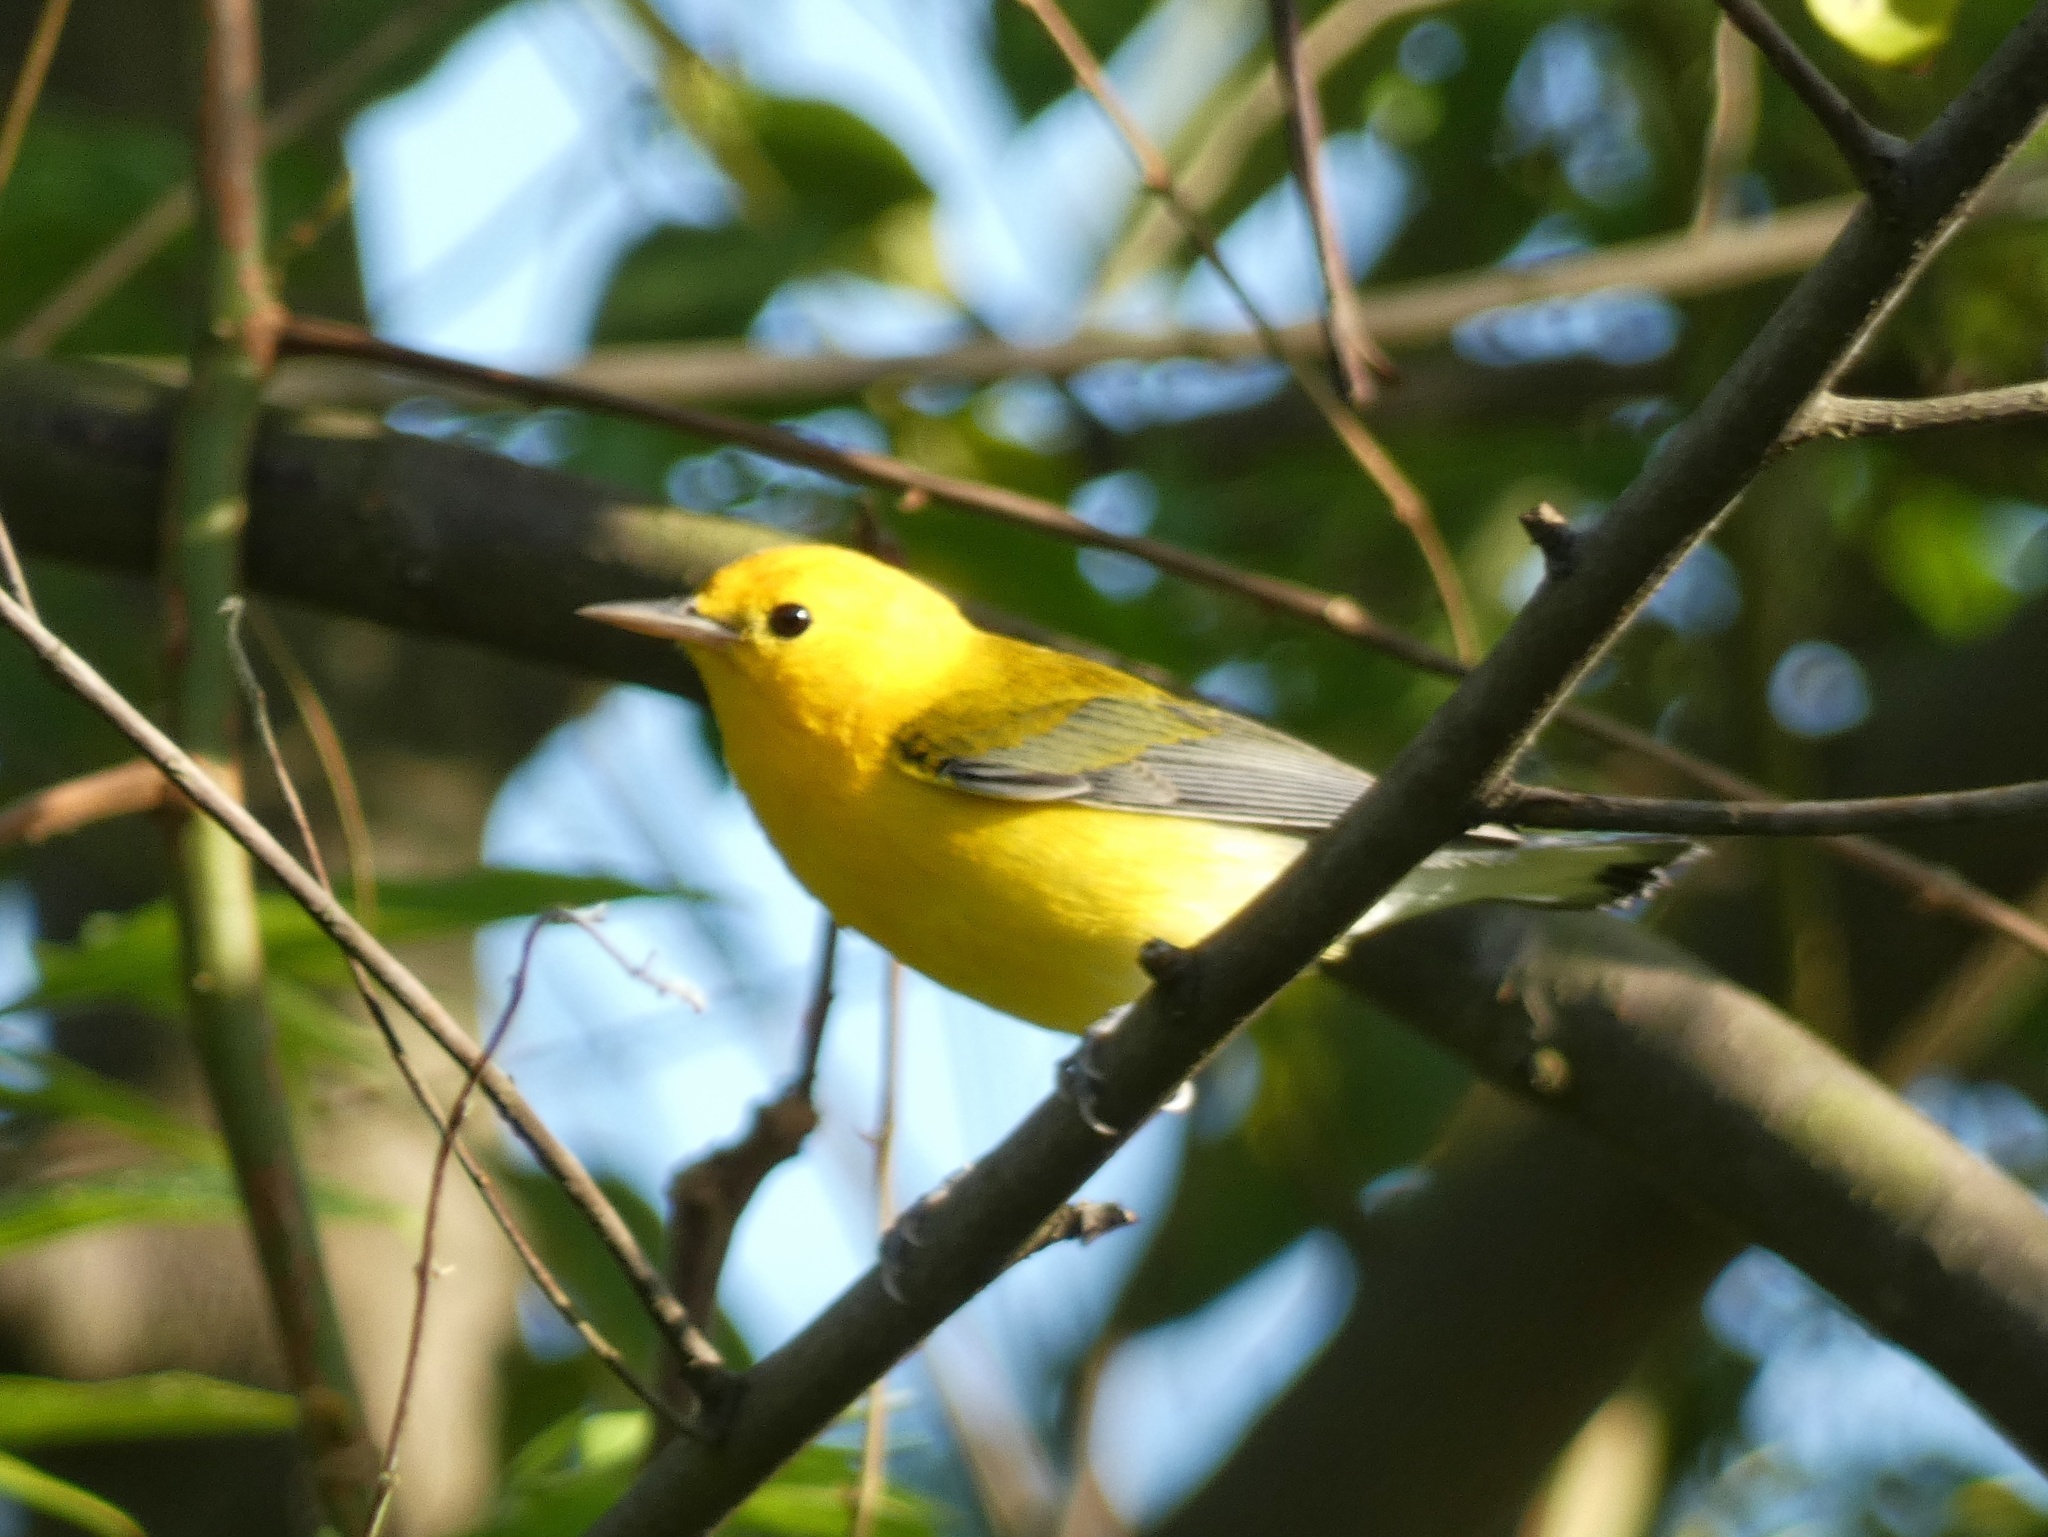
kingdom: Animalia
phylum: Chordata
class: Aves
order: Passeriformes
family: Parulidae
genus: Protonotaria
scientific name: Protonotaria citrea
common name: Prothonotary warbler
